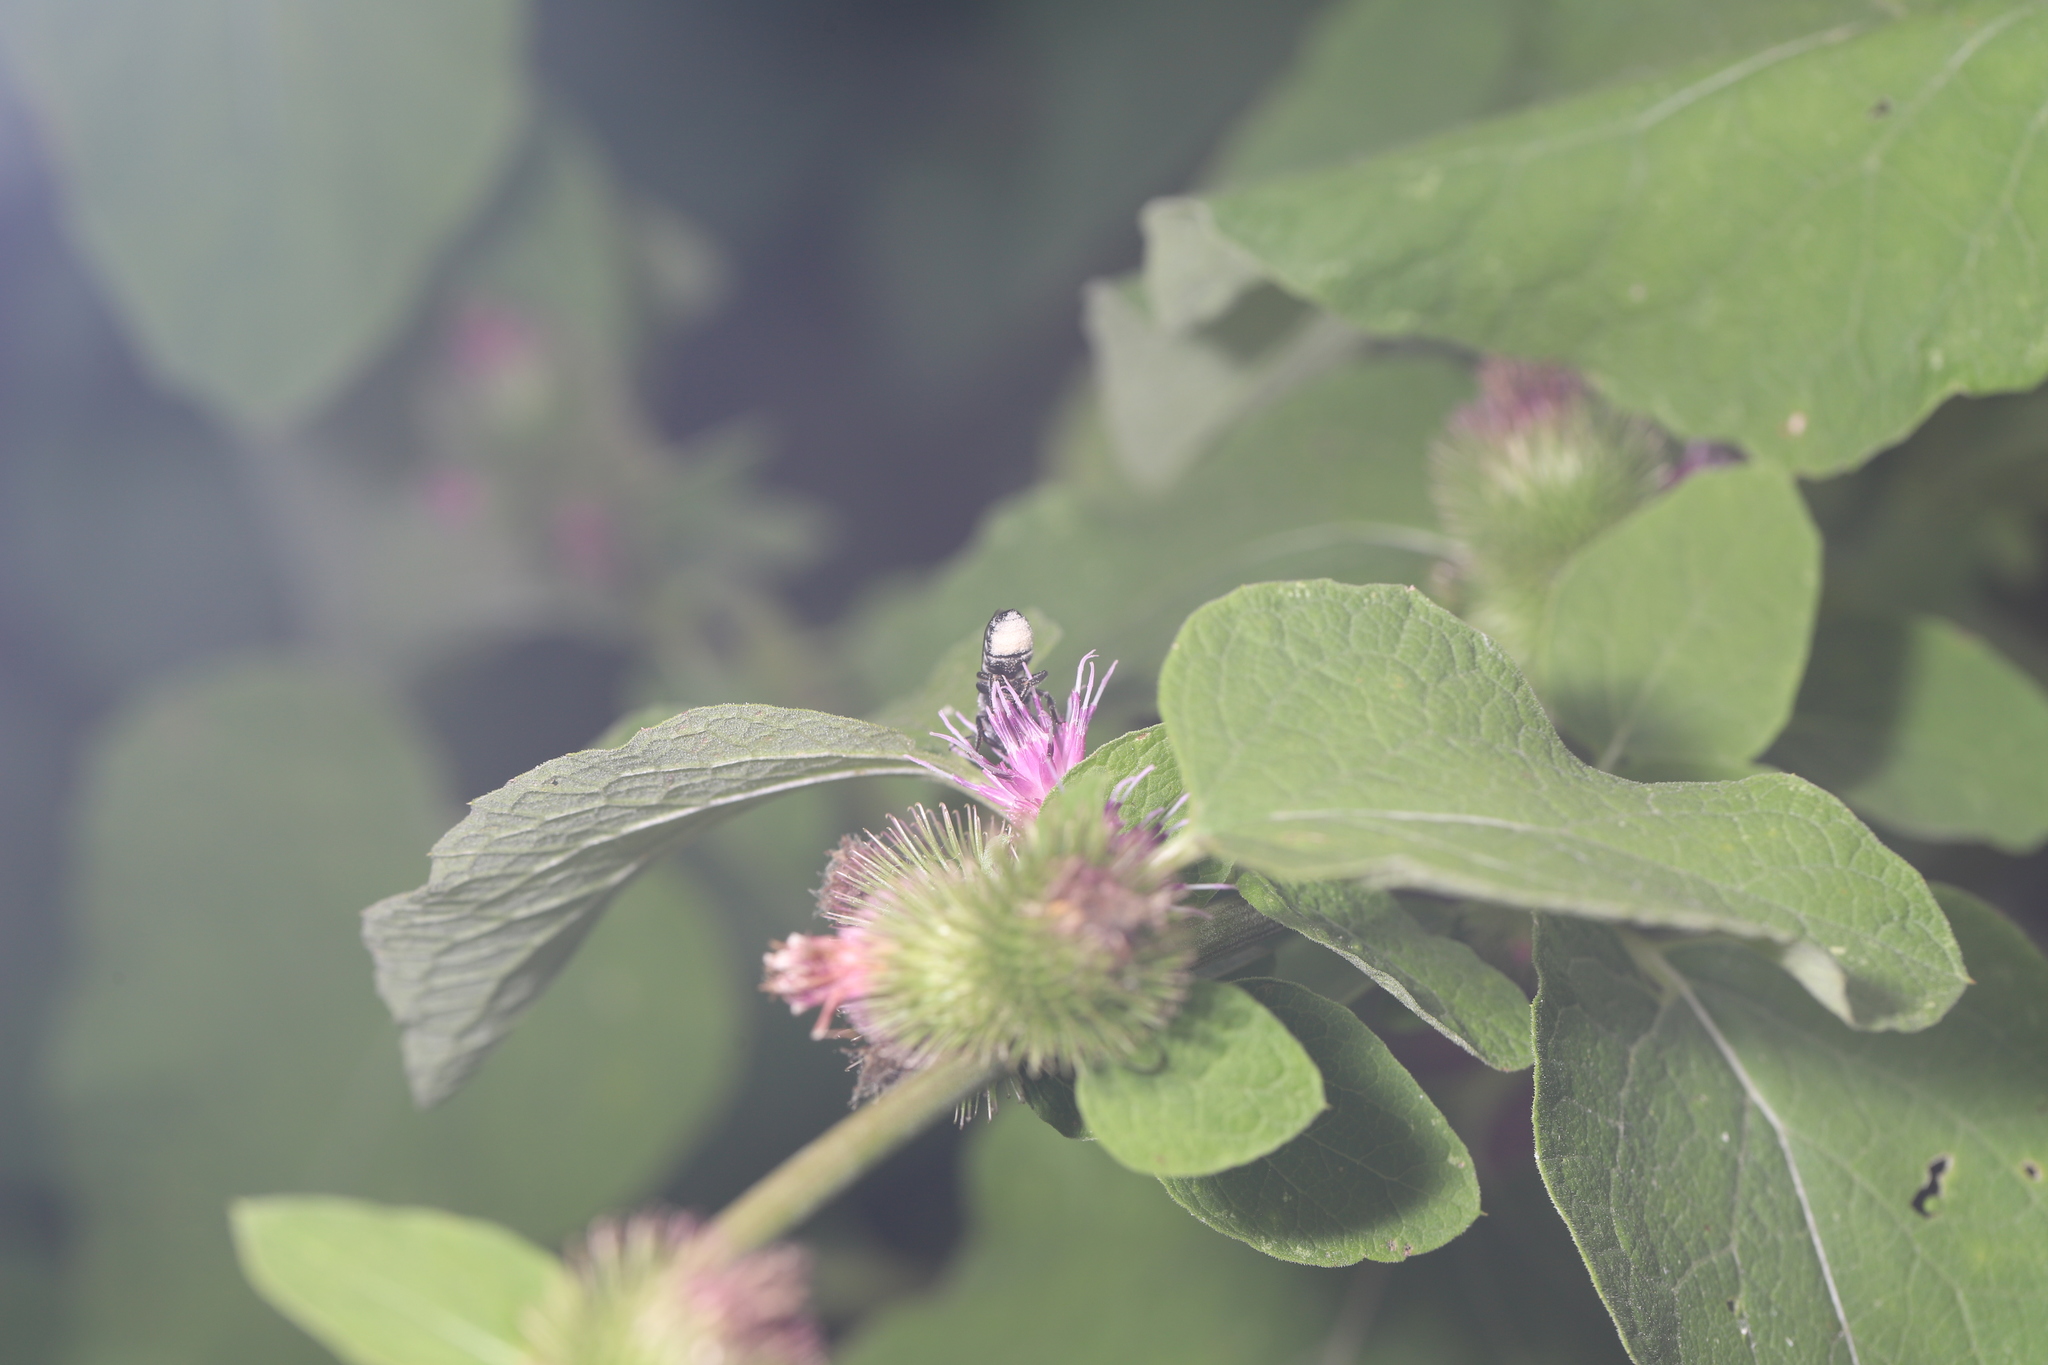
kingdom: Animalia
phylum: Arthropoda
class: Insecta
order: Hymenoptera
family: Megachilidae
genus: Megachile
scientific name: Megachile mendica
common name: Flat-tailed leafcutter
